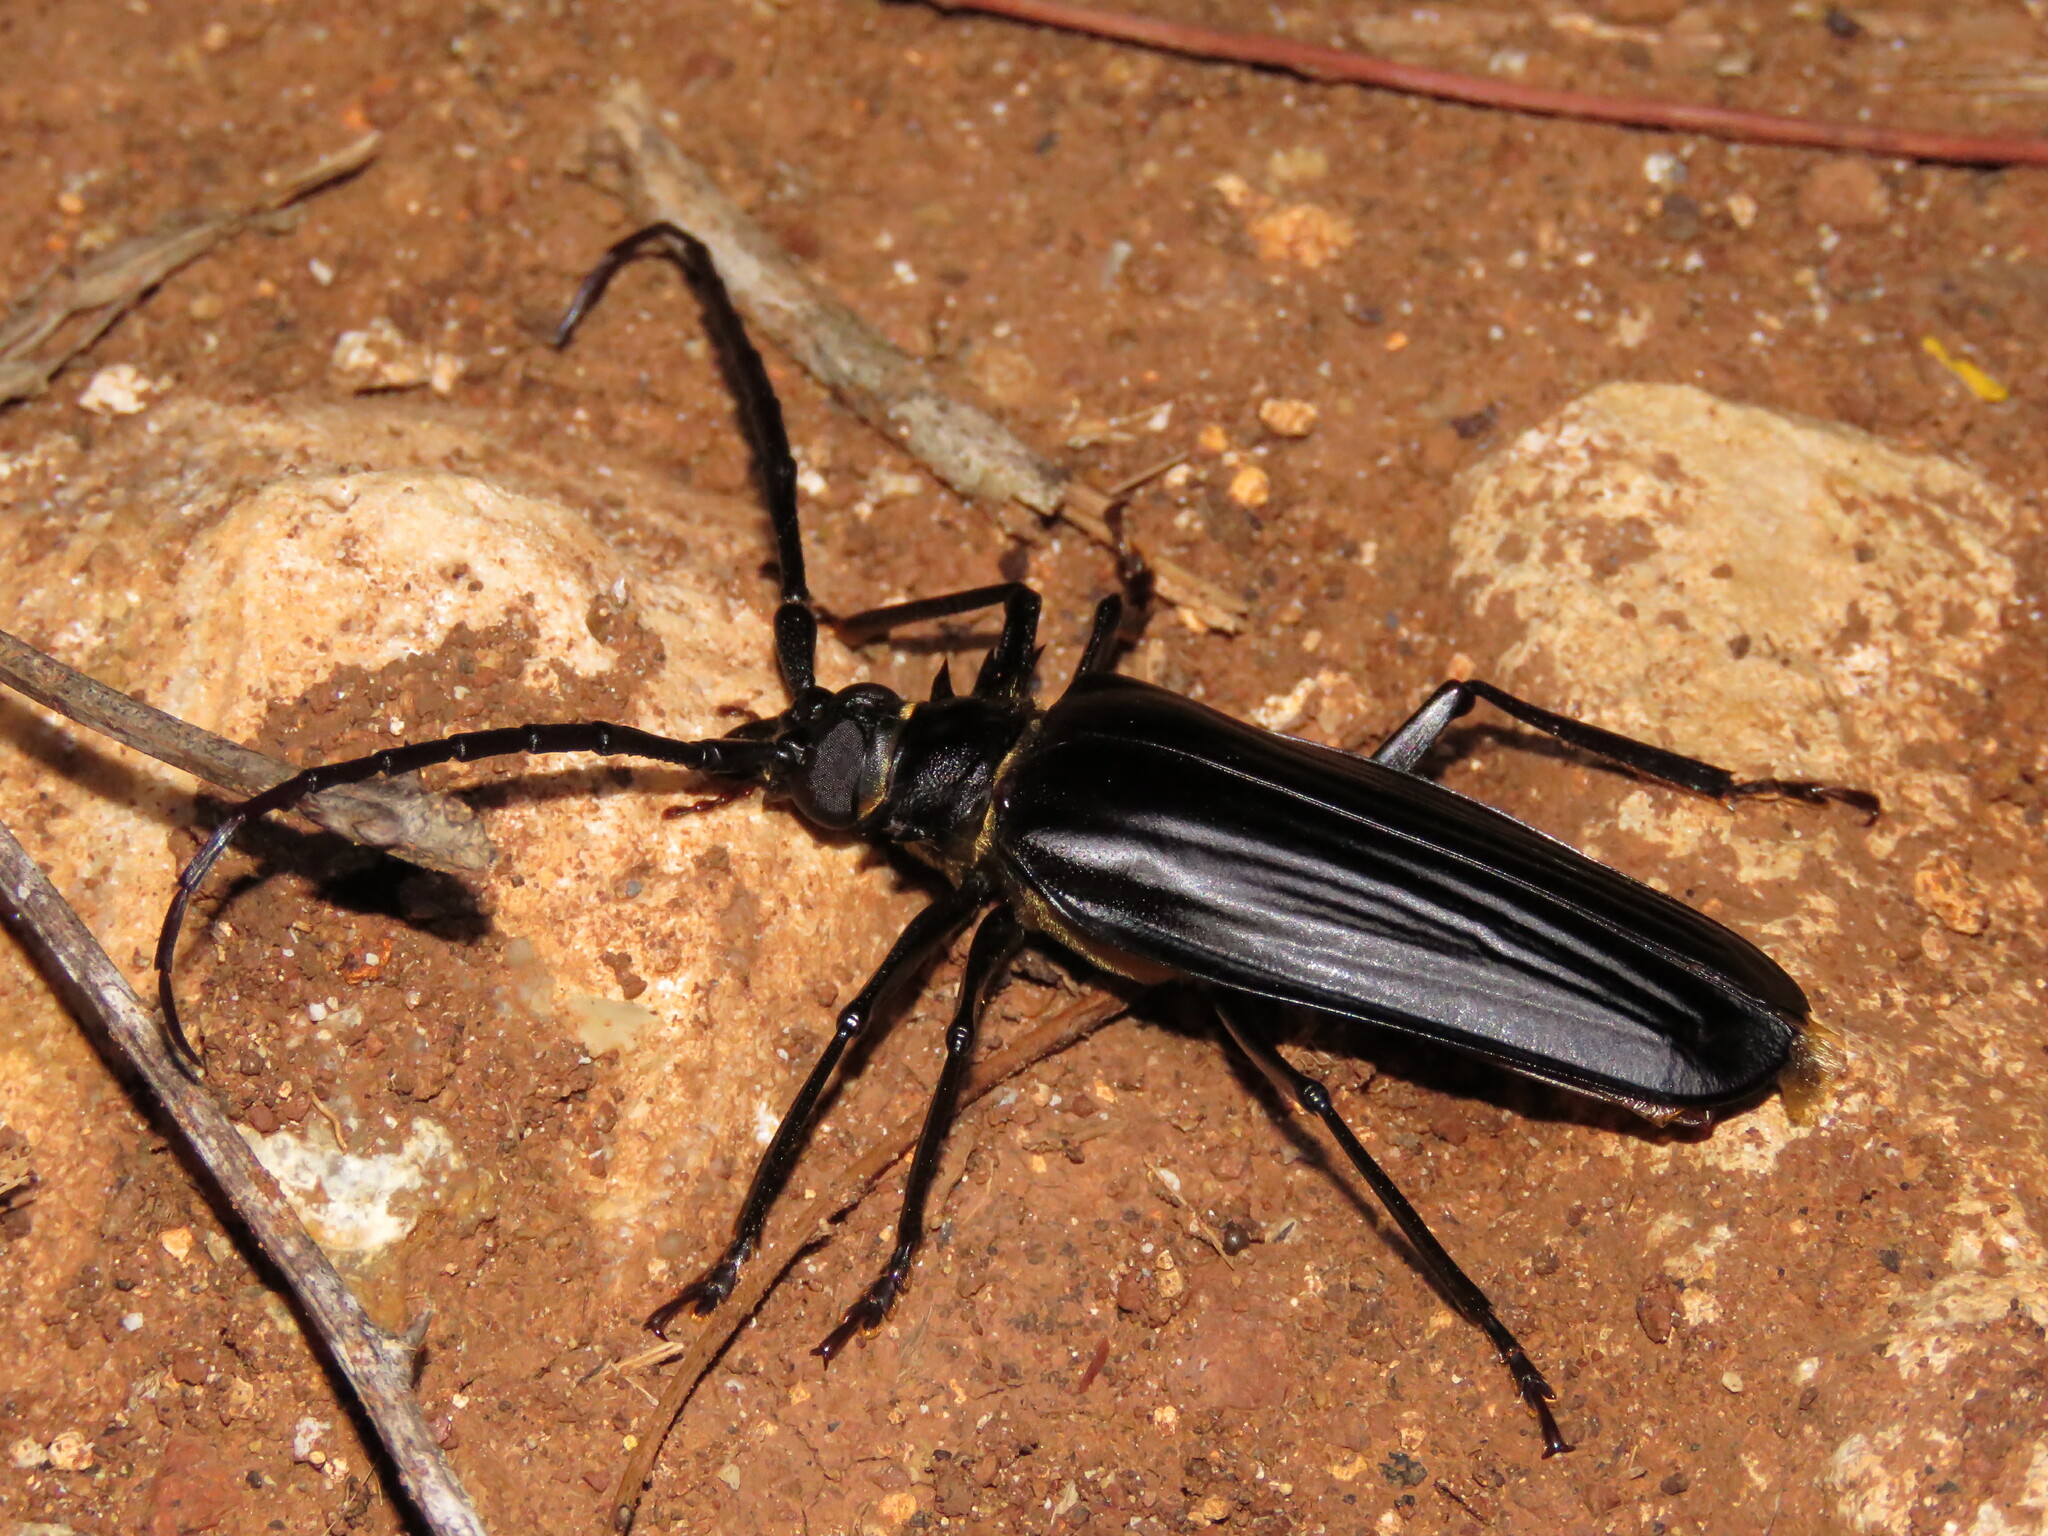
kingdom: Animalia
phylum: Arthropoda
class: Insecta
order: Coleoptera
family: Cerambycidae
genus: Derobrachus
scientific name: Derobrachus inaequalis
